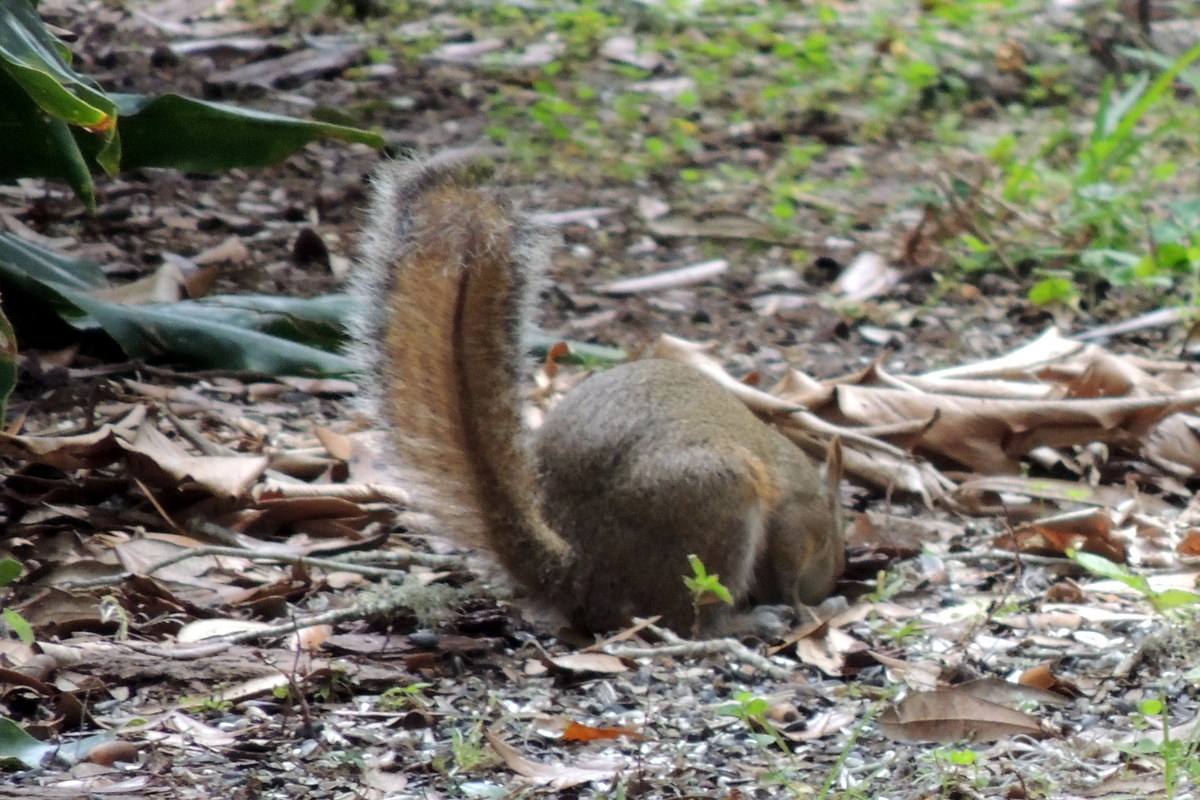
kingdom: Animalia
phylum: Chordata
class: Mammalia
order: Rodentia
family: Sciuridae
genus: Sciurus
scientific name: Sciurus carolinensis
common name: Eastern gray squirrel
